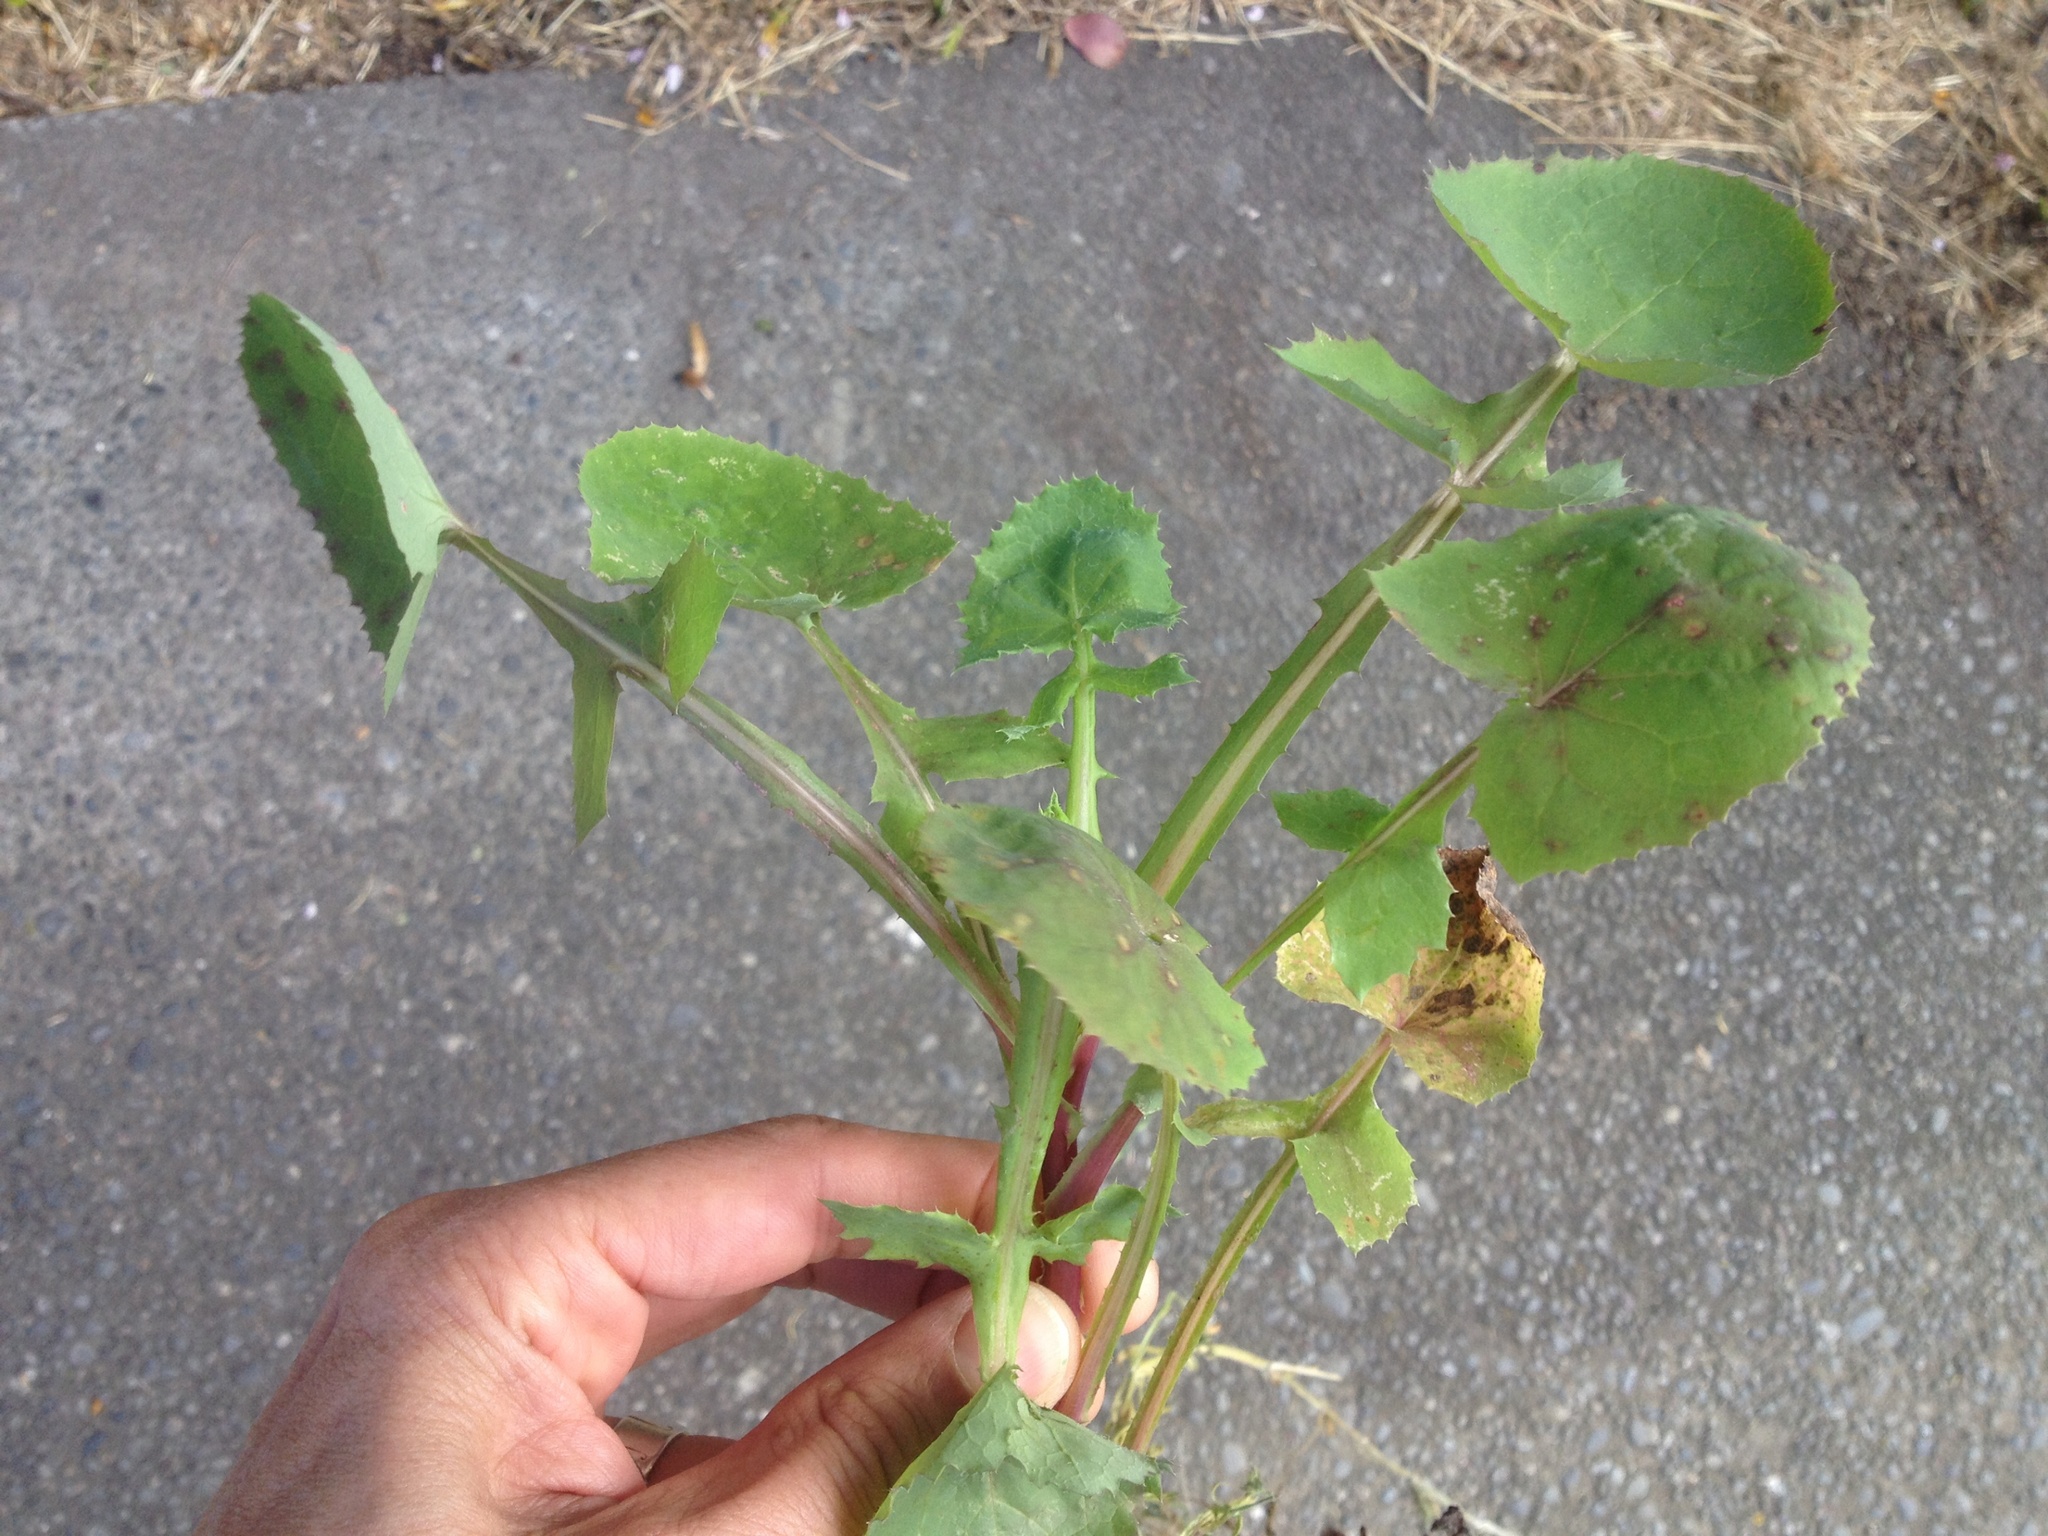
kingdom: Plantae
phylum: Tracheophyta
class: Magnoliopsida
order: Asterales
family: Asteraceae
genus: Sonchus
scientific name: Sonchus oleraceus
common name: Common sowthistle
